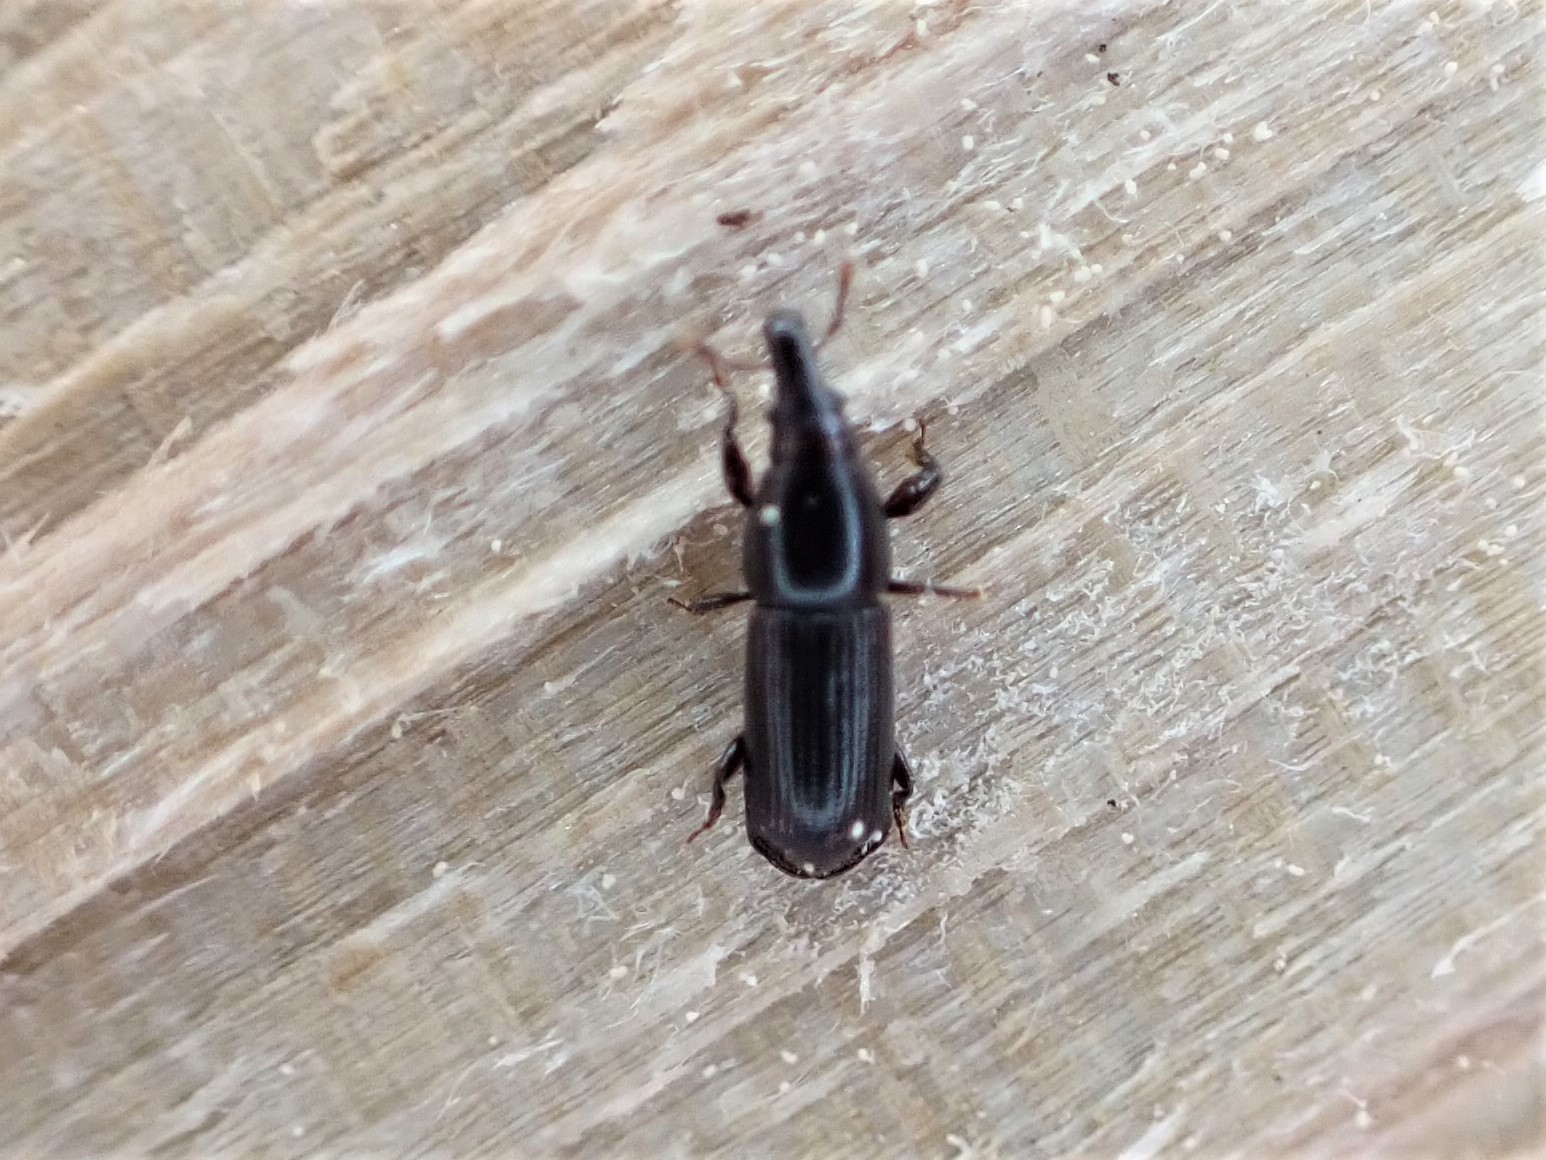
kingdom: Animalia
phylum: Arthropoda
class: Insecta
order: Coleoptera
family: Curculionidae
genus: Torostoma
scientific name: Torostoma apicale
